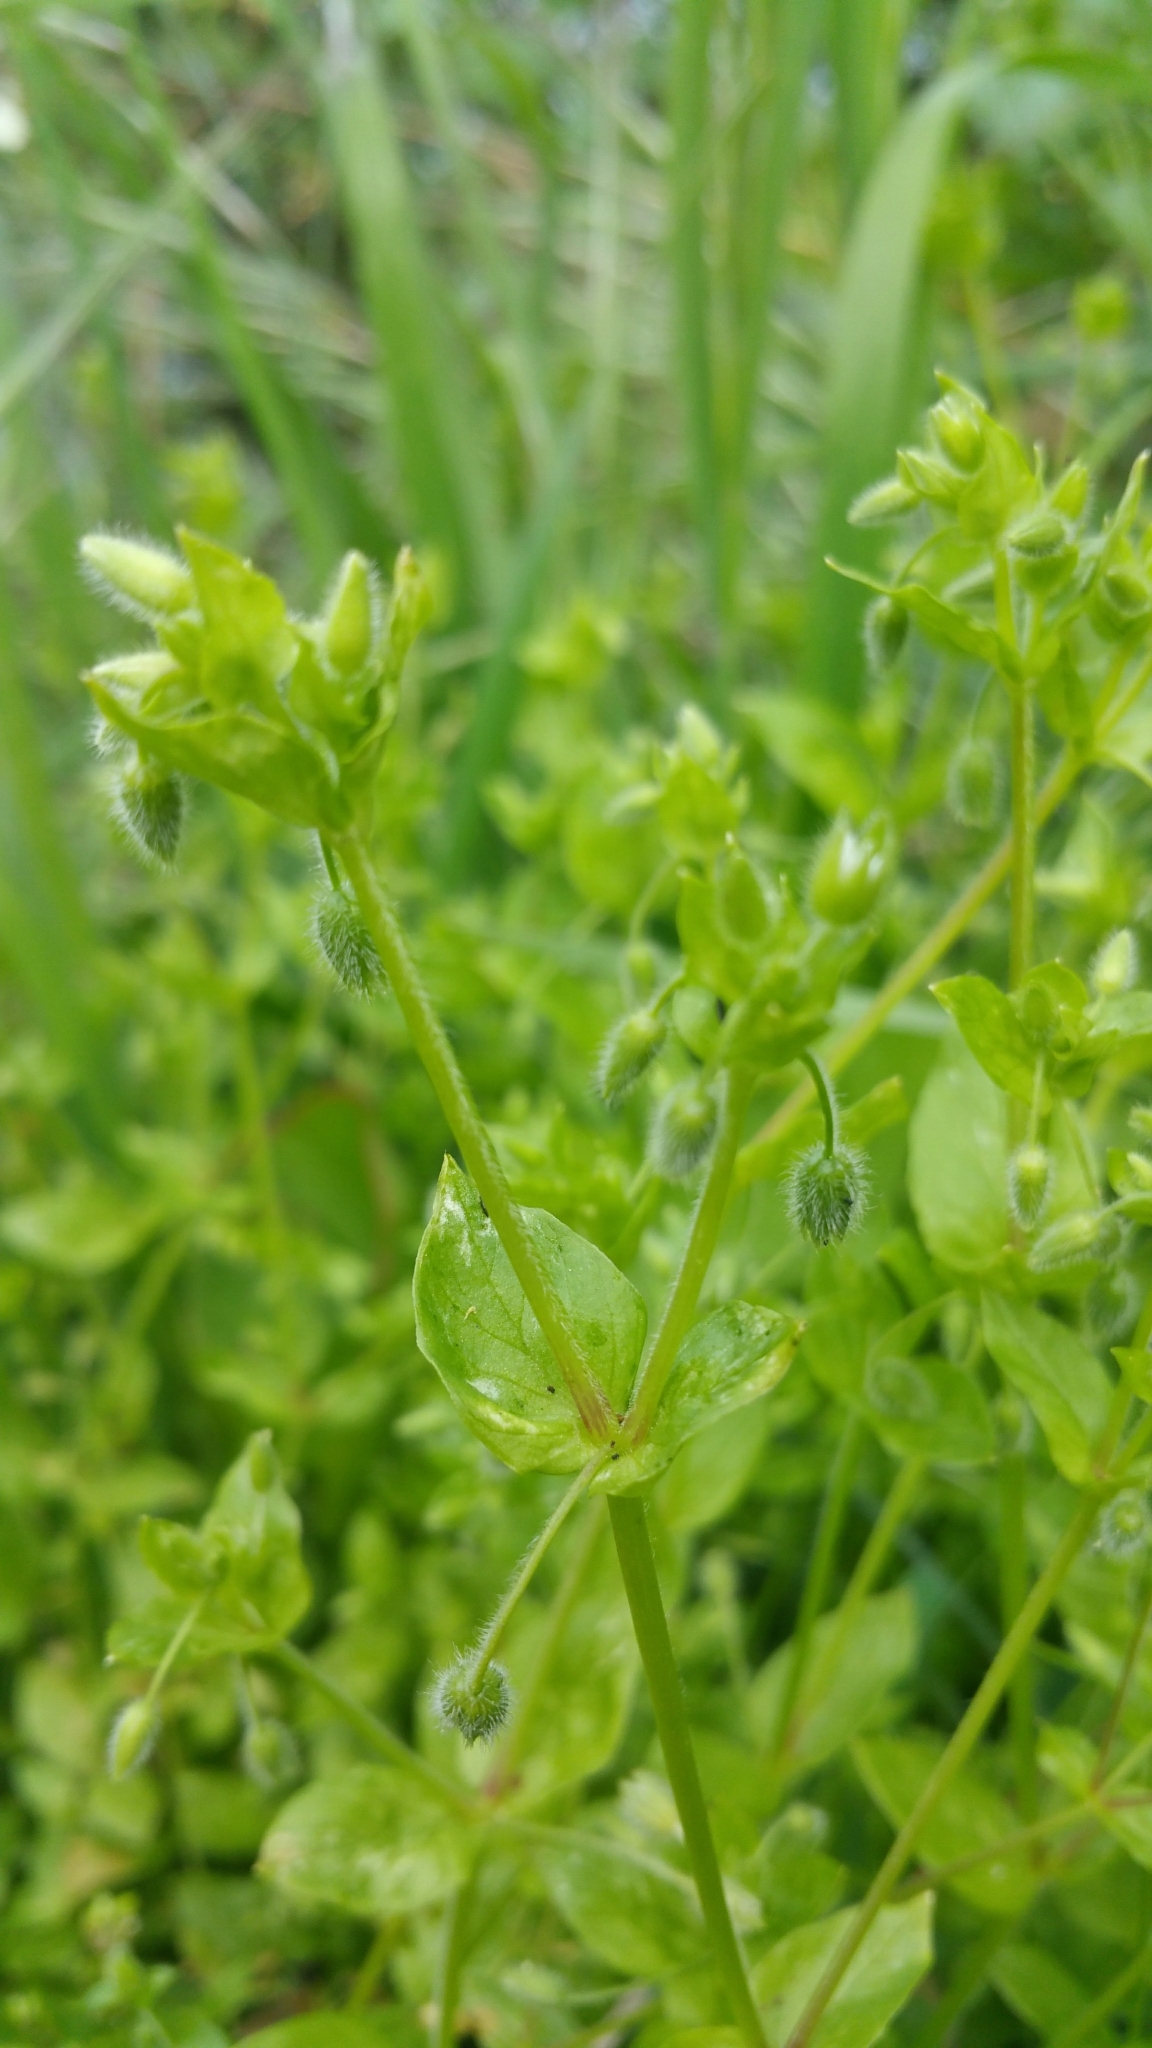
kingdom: Plantae
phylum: Tracheophyta
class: Magnoliopsida
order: Caryophyllales
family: Caryophyllaceae
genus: Stellaria
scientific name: Stellaria media
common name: Common chickweed
